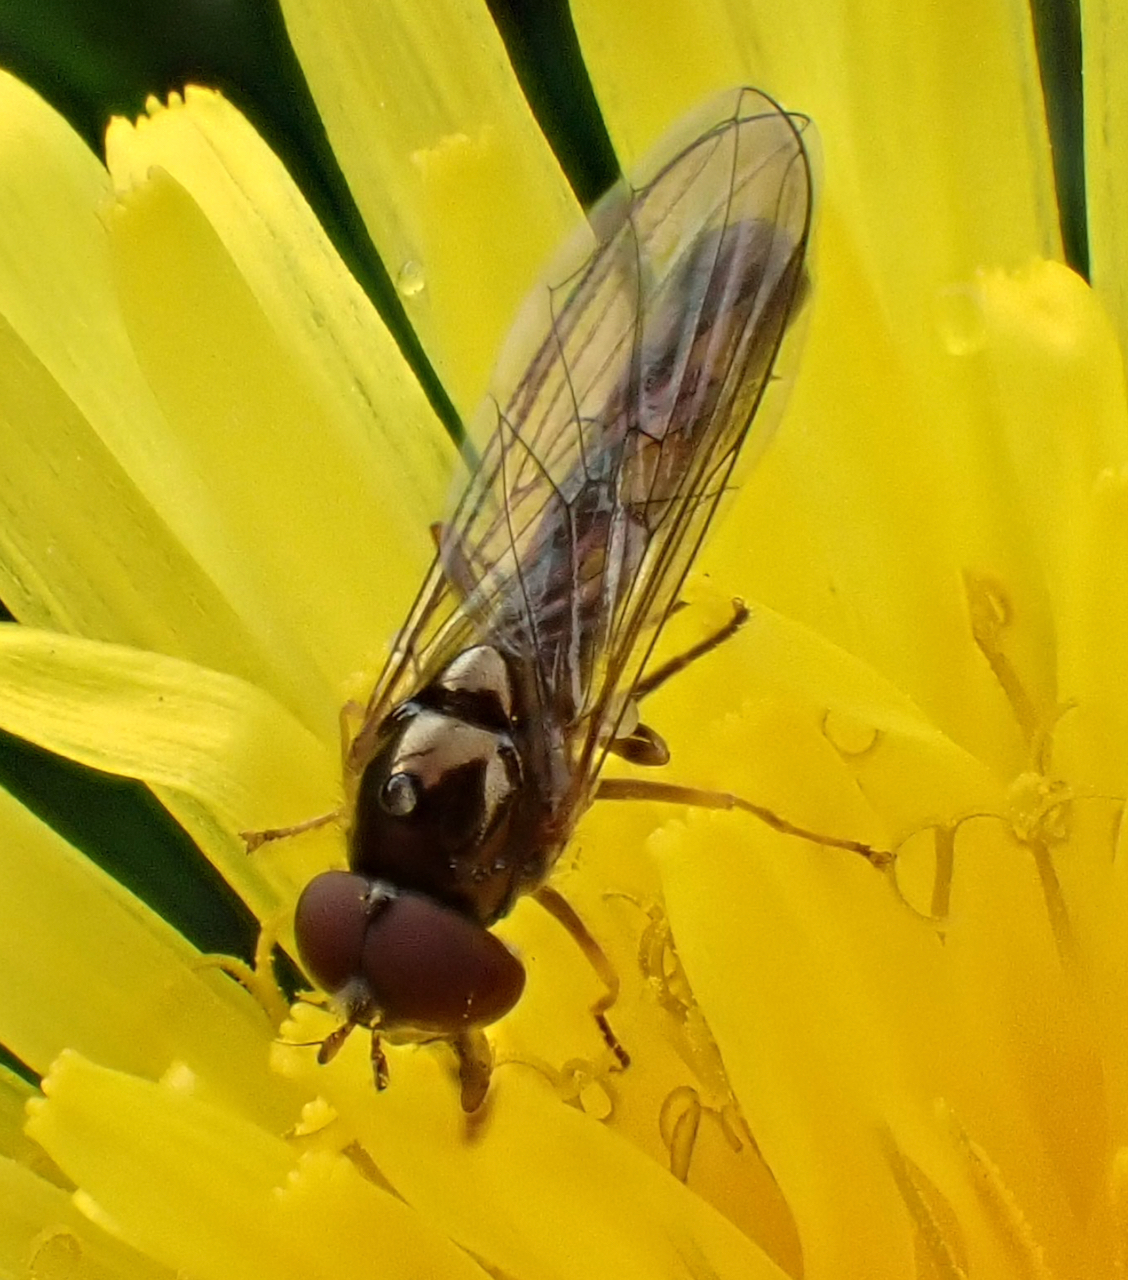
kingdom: Animalia
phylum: Arthropoda
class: Insecta
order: Diptera
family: Syrphidae
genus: Melanostoma
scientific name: Melanostoma scalare
